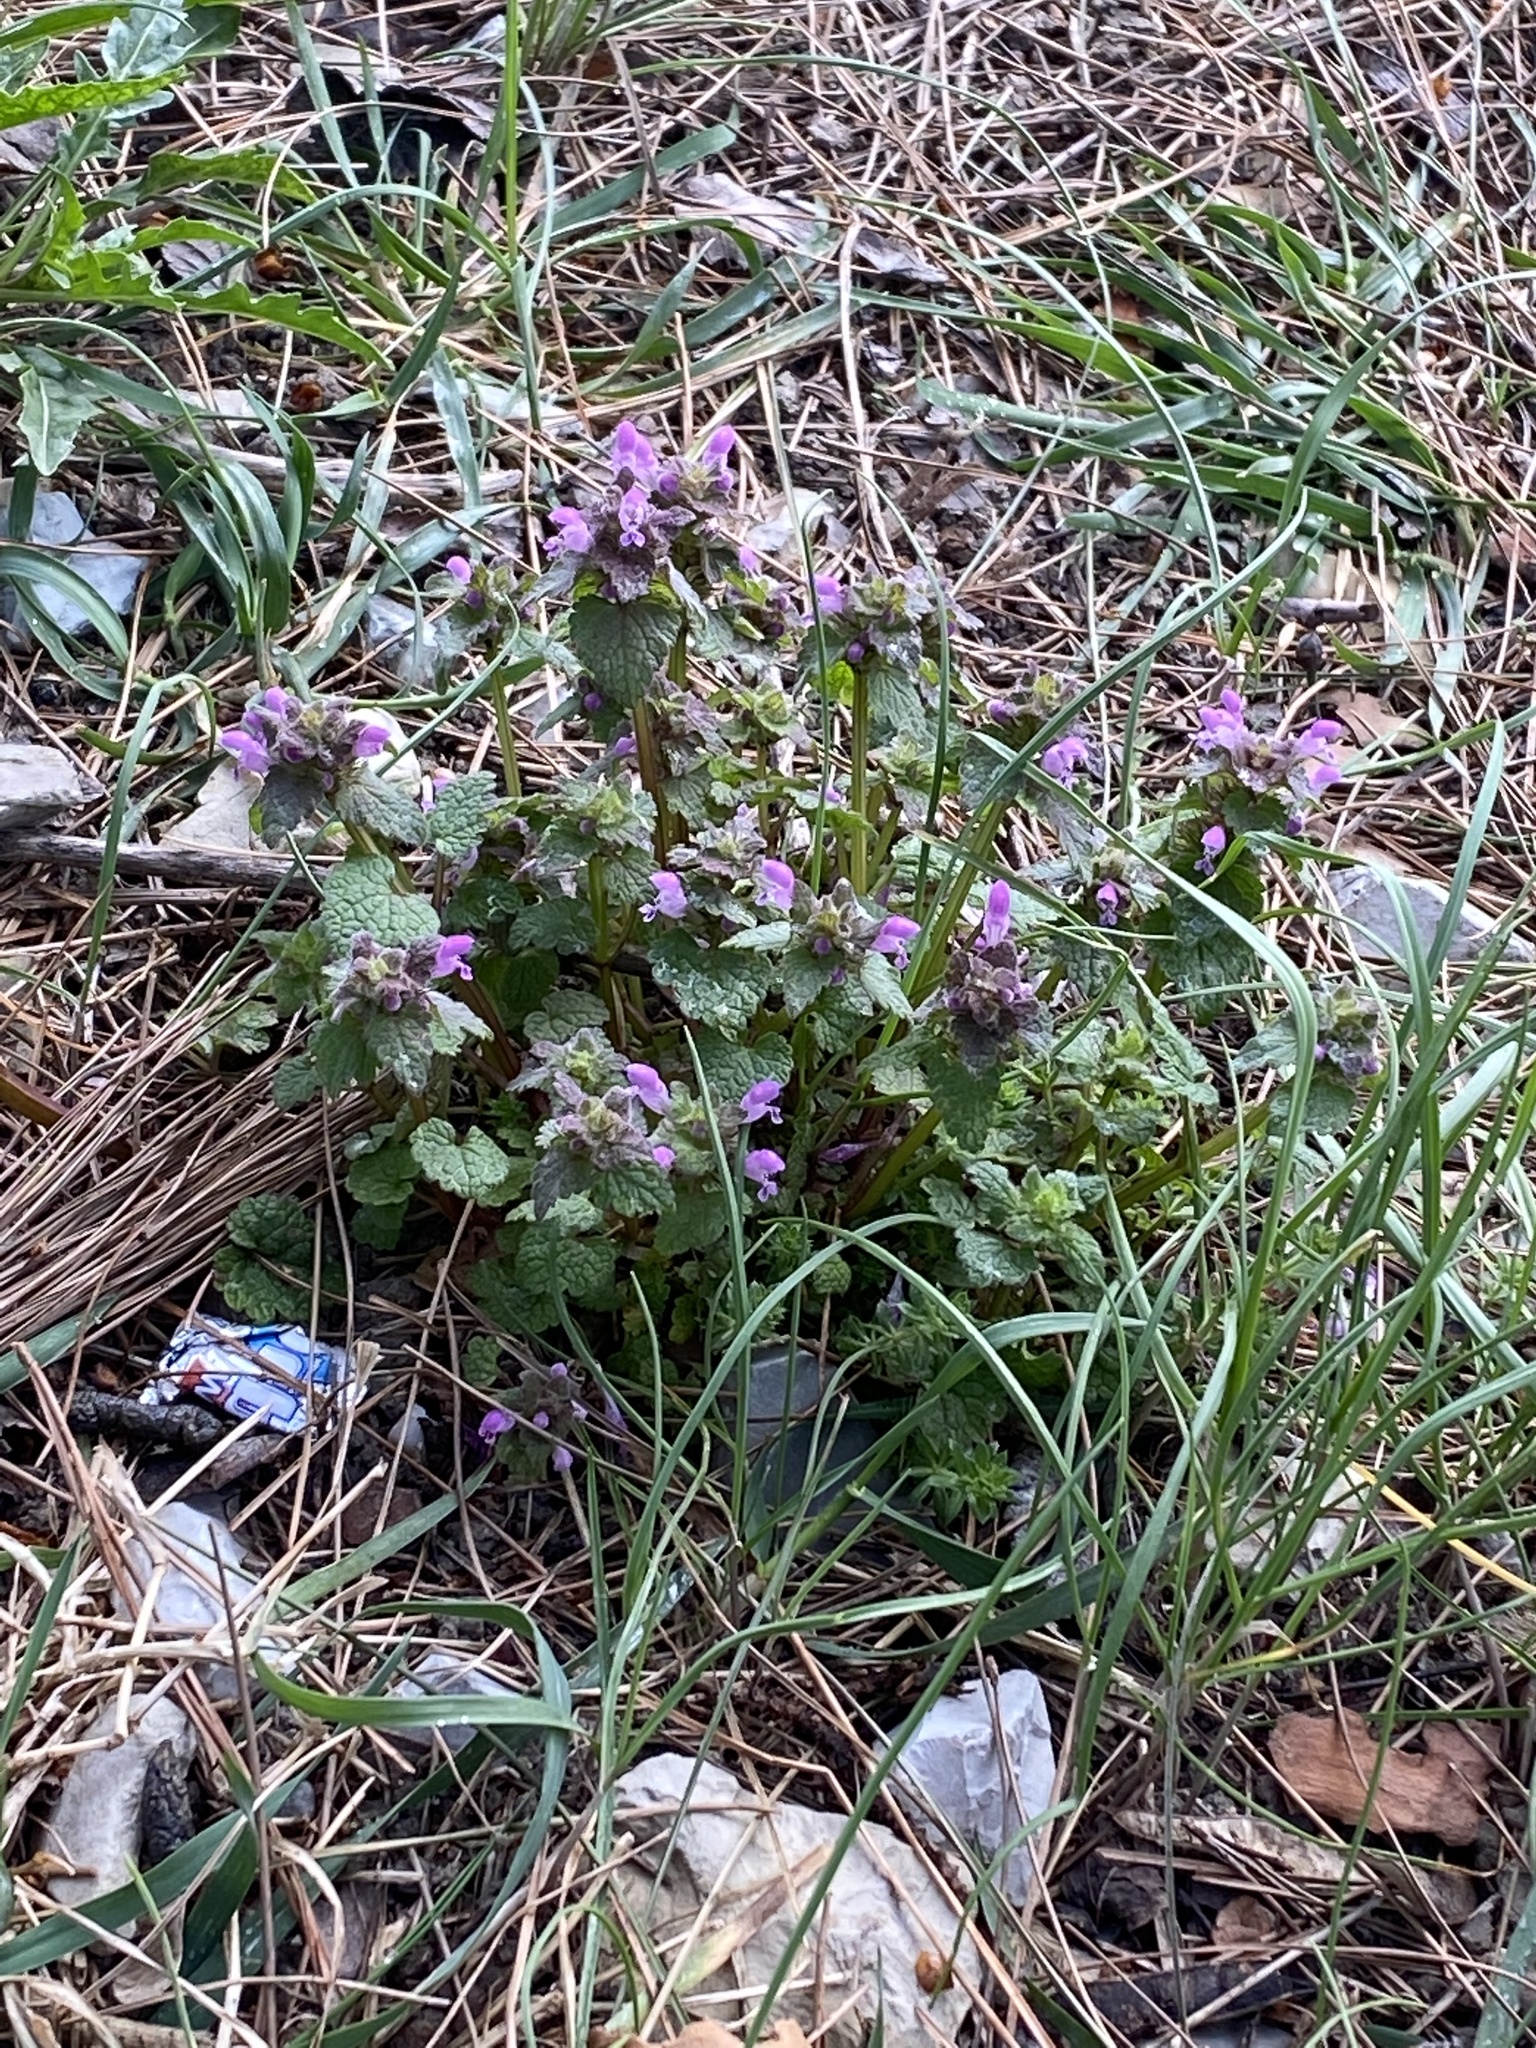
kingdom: Plantae
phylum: Tracheophyta
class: Magnoliopsida
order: Lamiales
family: Lamiaceae
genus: Lamium
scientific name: Lamium purpureum
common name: Red dead-nettle
